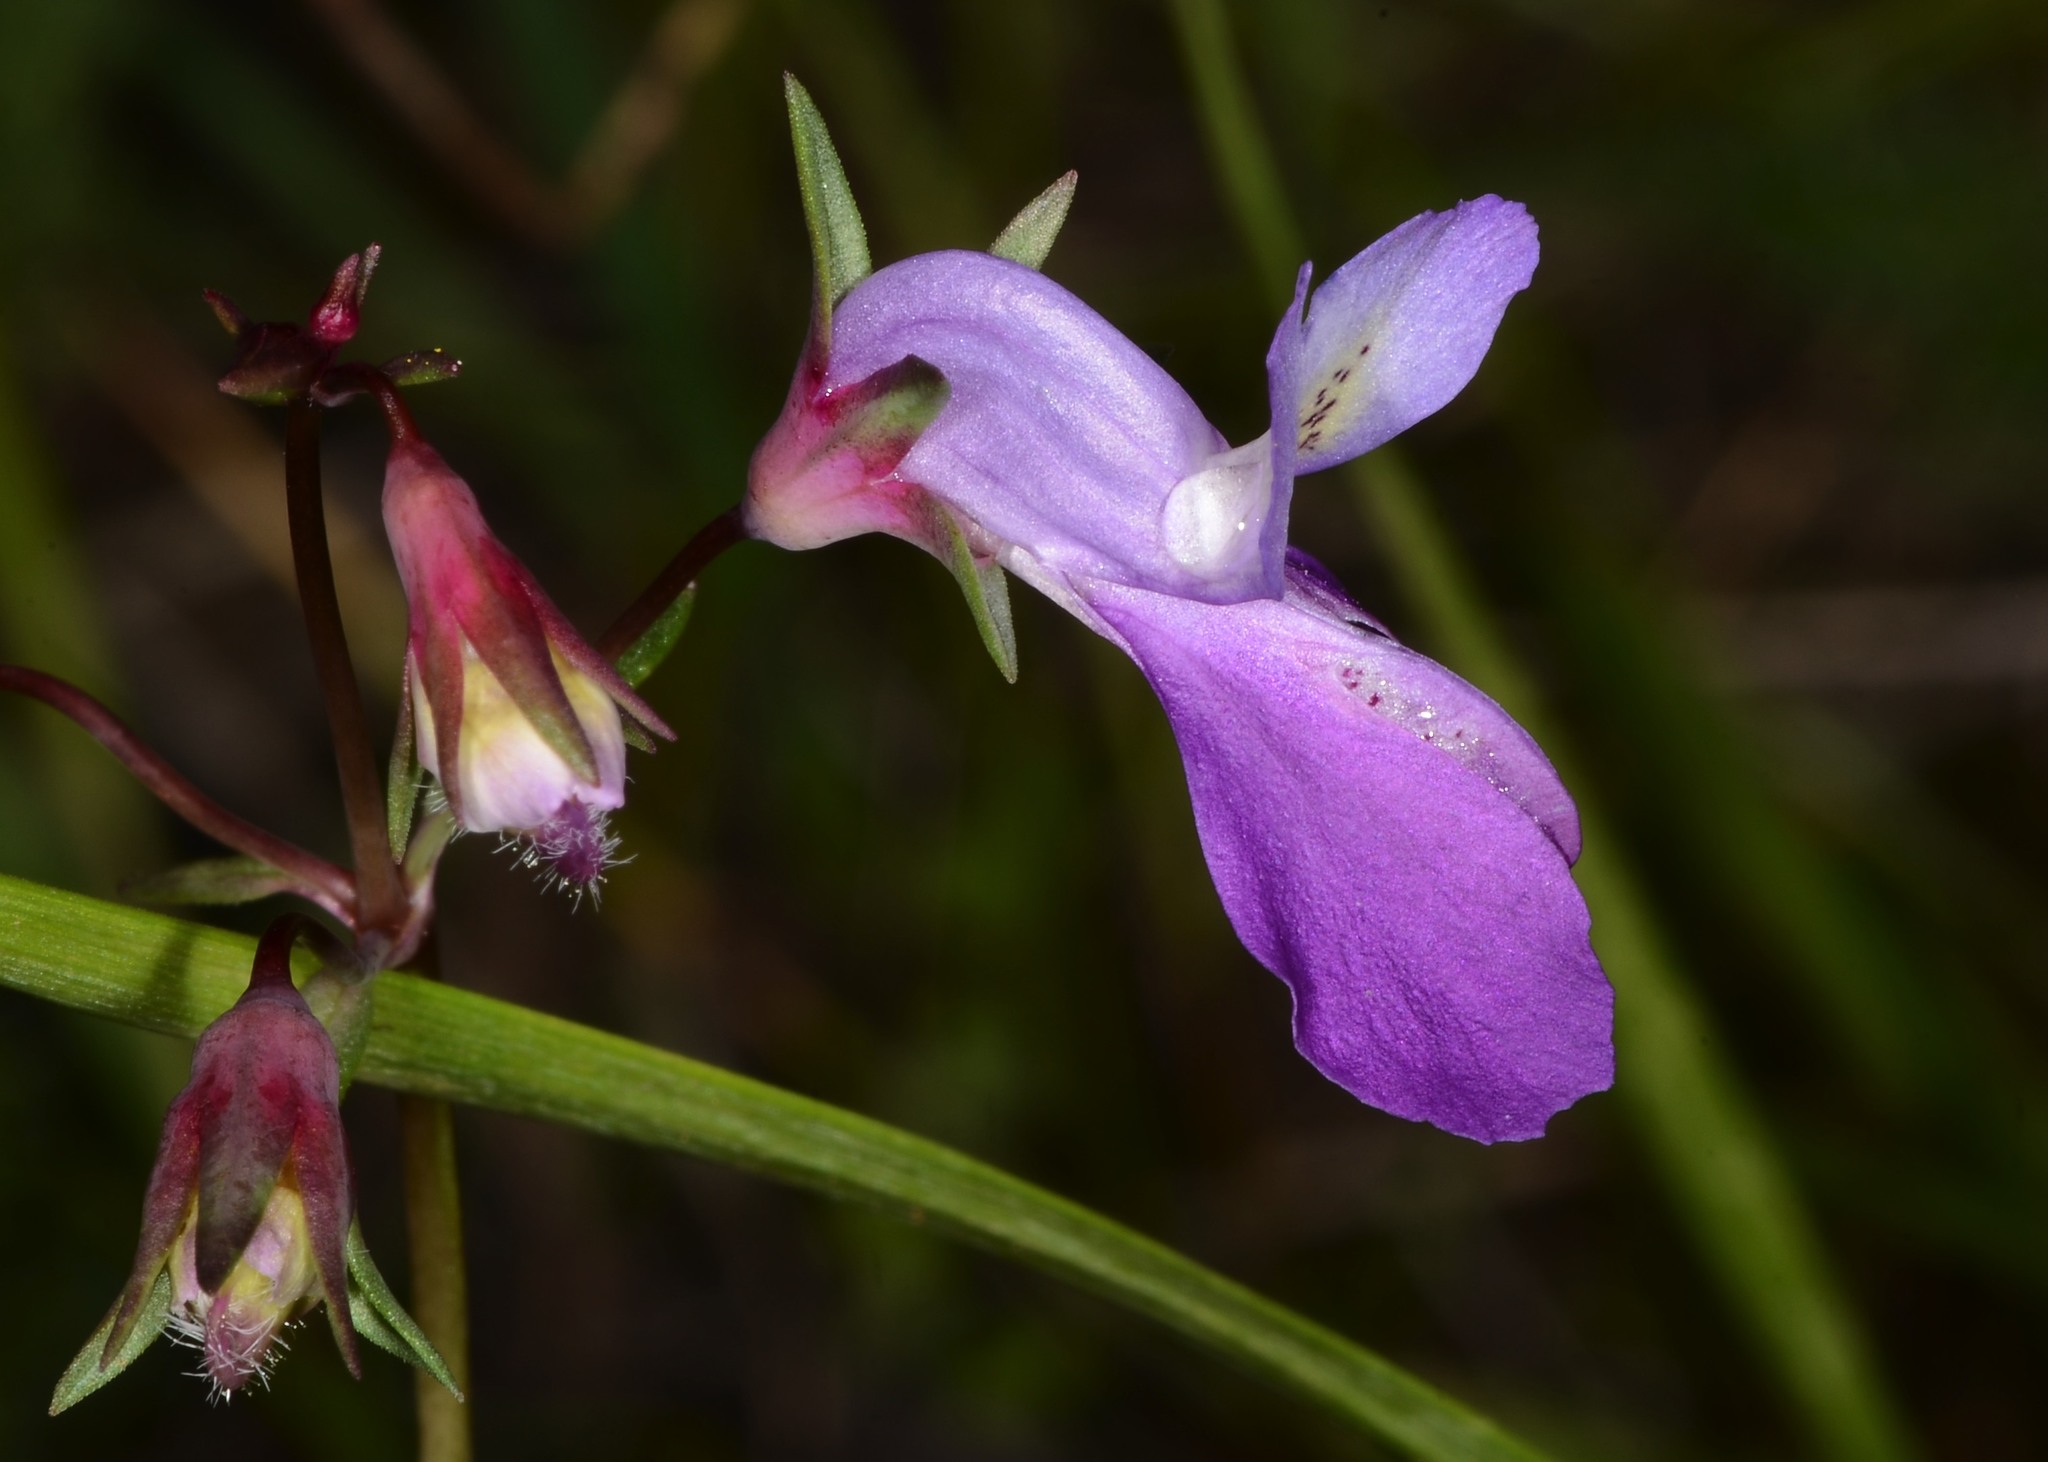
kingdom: Plantae
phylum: Tracheophyta
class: Magnoliopsida
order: Lamiales
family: Plantaginaceae
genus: Collinsia
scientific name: Collinsia sparsiflora
